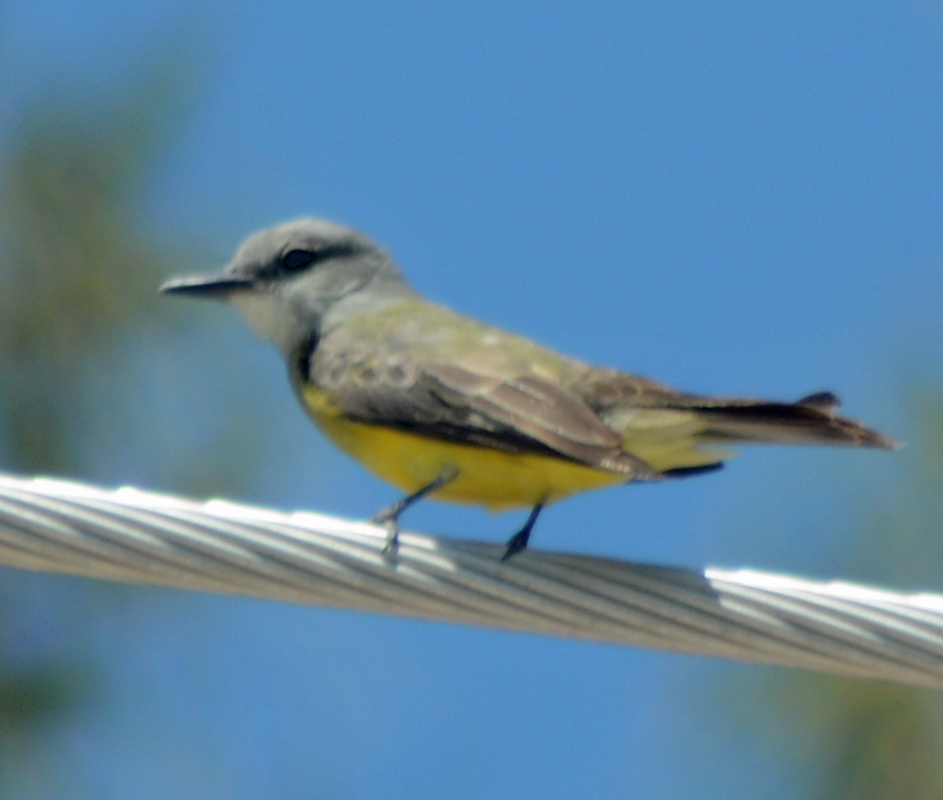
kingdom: Animalia
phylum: Chordata
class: Aves
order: Passeriformes
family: Tyrannidae
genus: Tyrannus
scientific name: Tyrannus melancholicus
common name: Tropical kingbird
